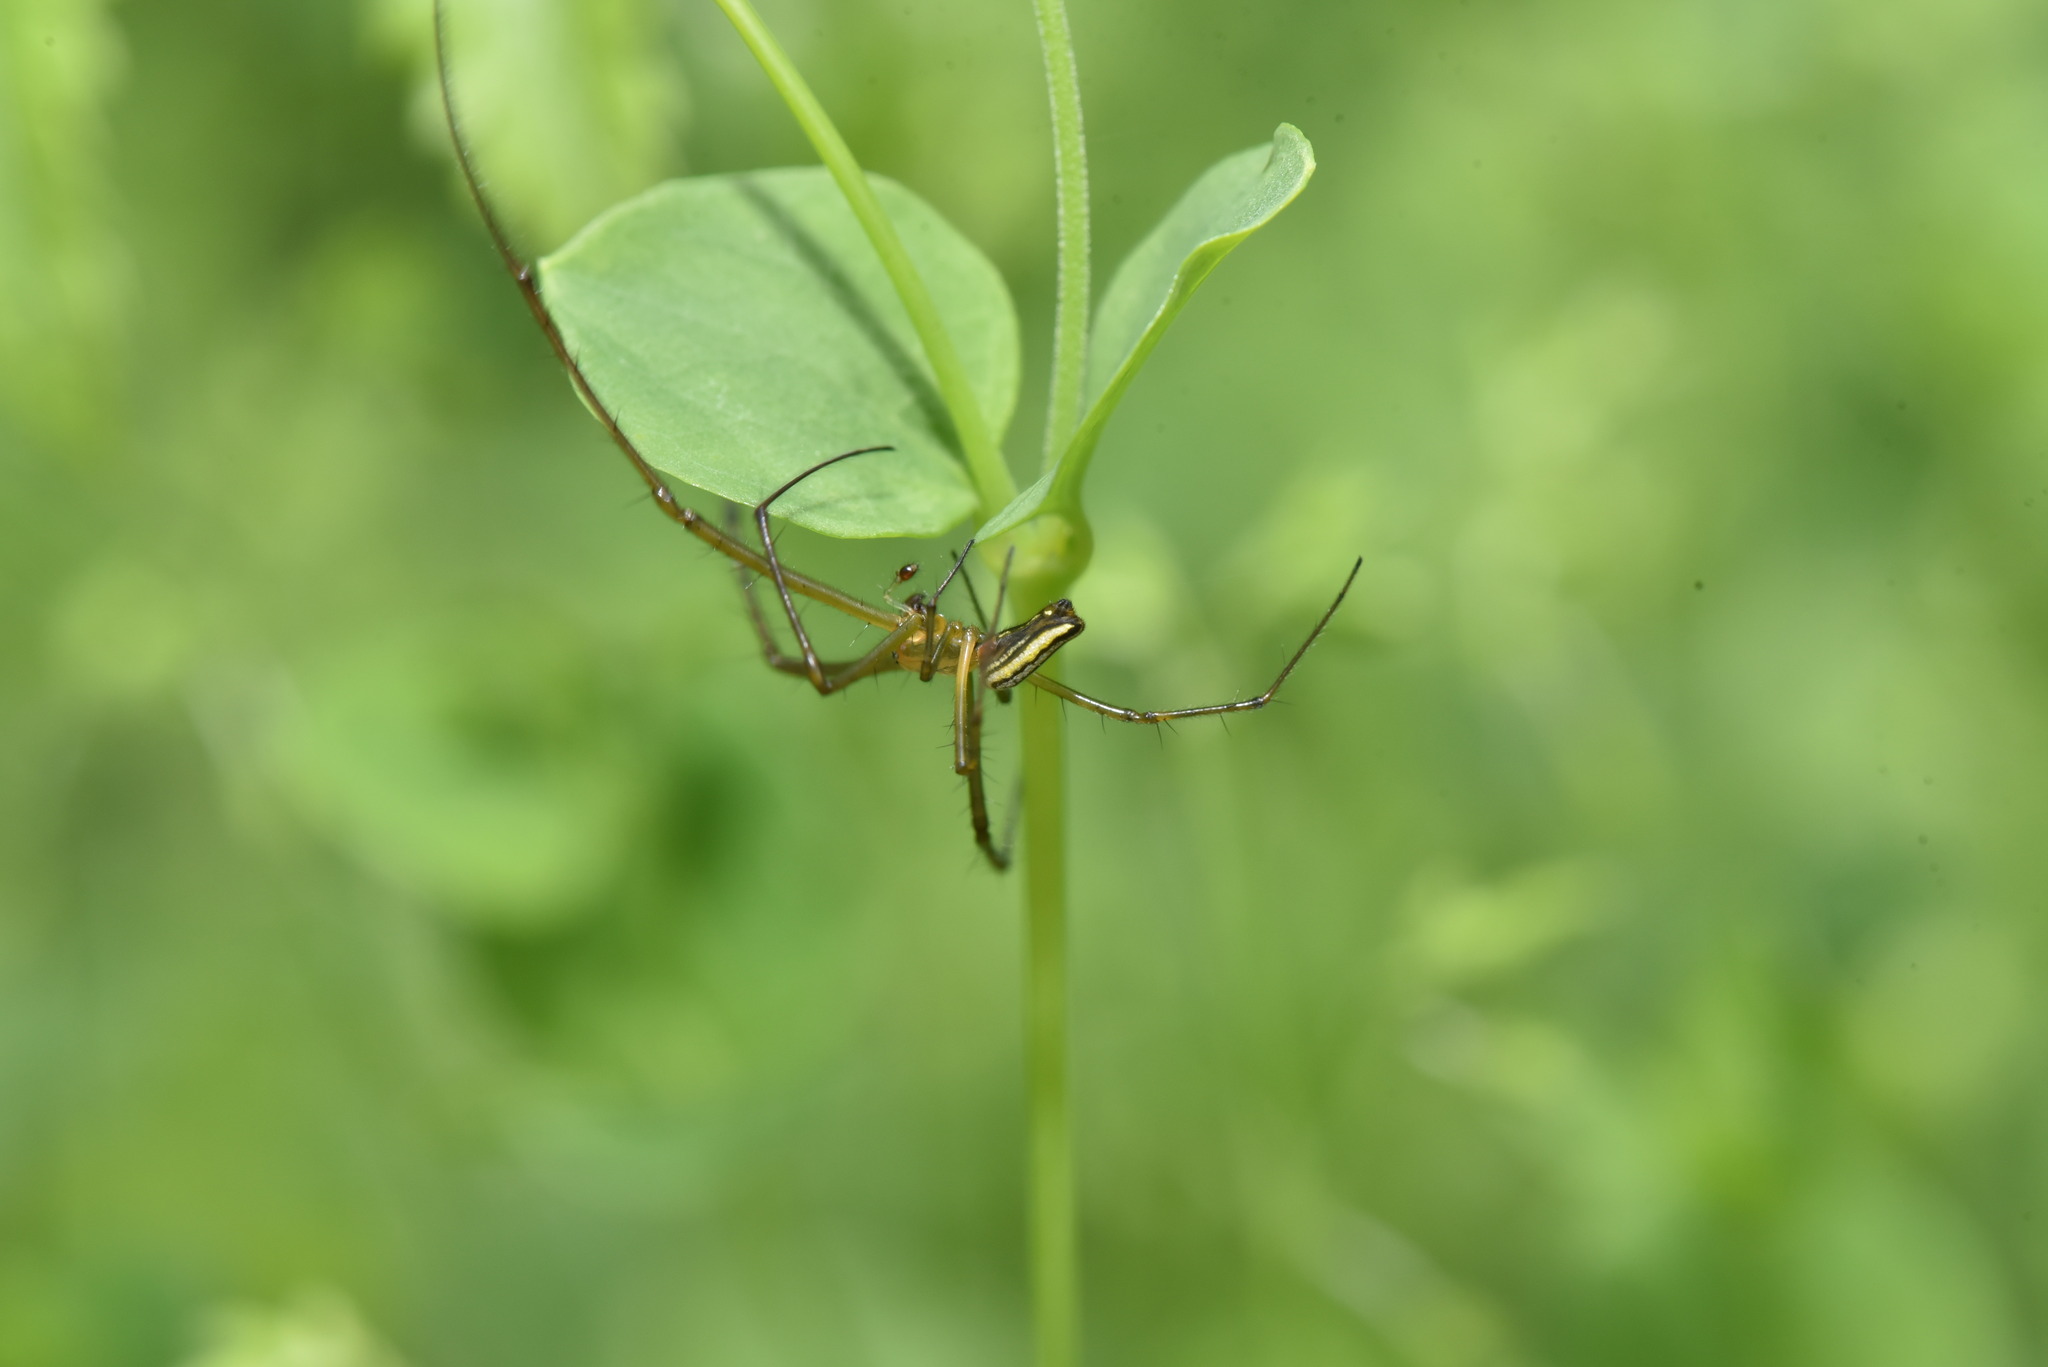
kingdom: Animalia
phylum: Arthropoda
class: Arachnida
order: Araneae
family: Tetragnathidae
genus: Leucauge
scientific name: Leucauge celebesiana
